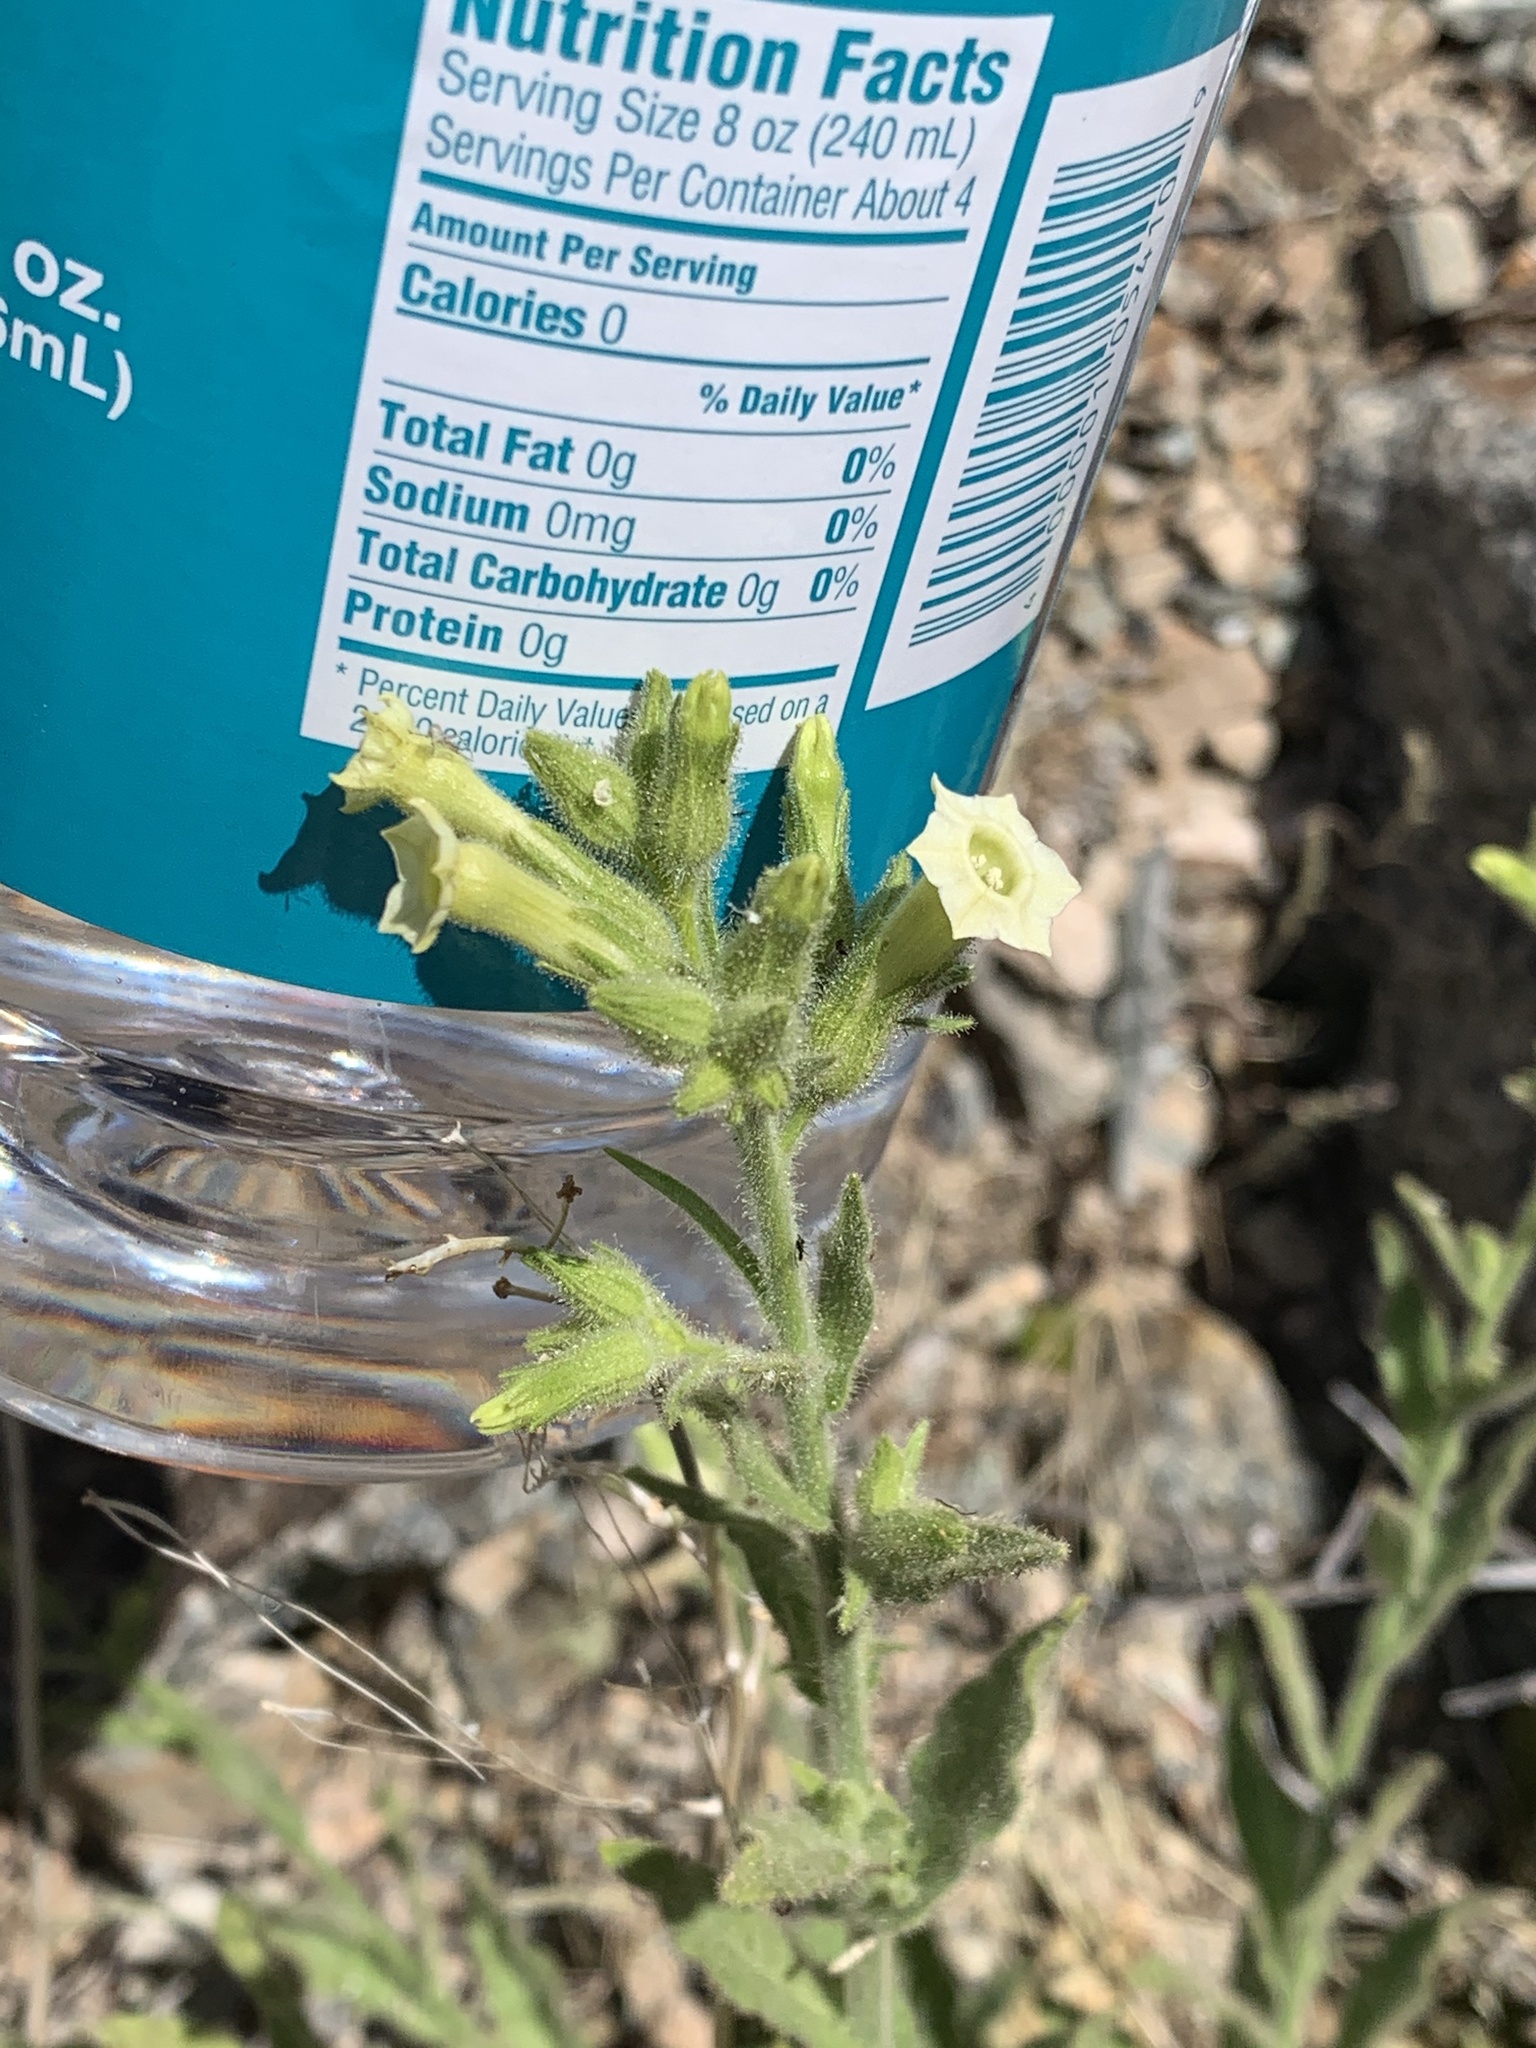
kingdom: Plantae
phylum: Tracheophyta
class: Magnoliopsida
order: Solanales
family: Solanaceae
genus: Nicotiana
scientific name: Nicotiana obtusifolia
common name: Desert tobacco
